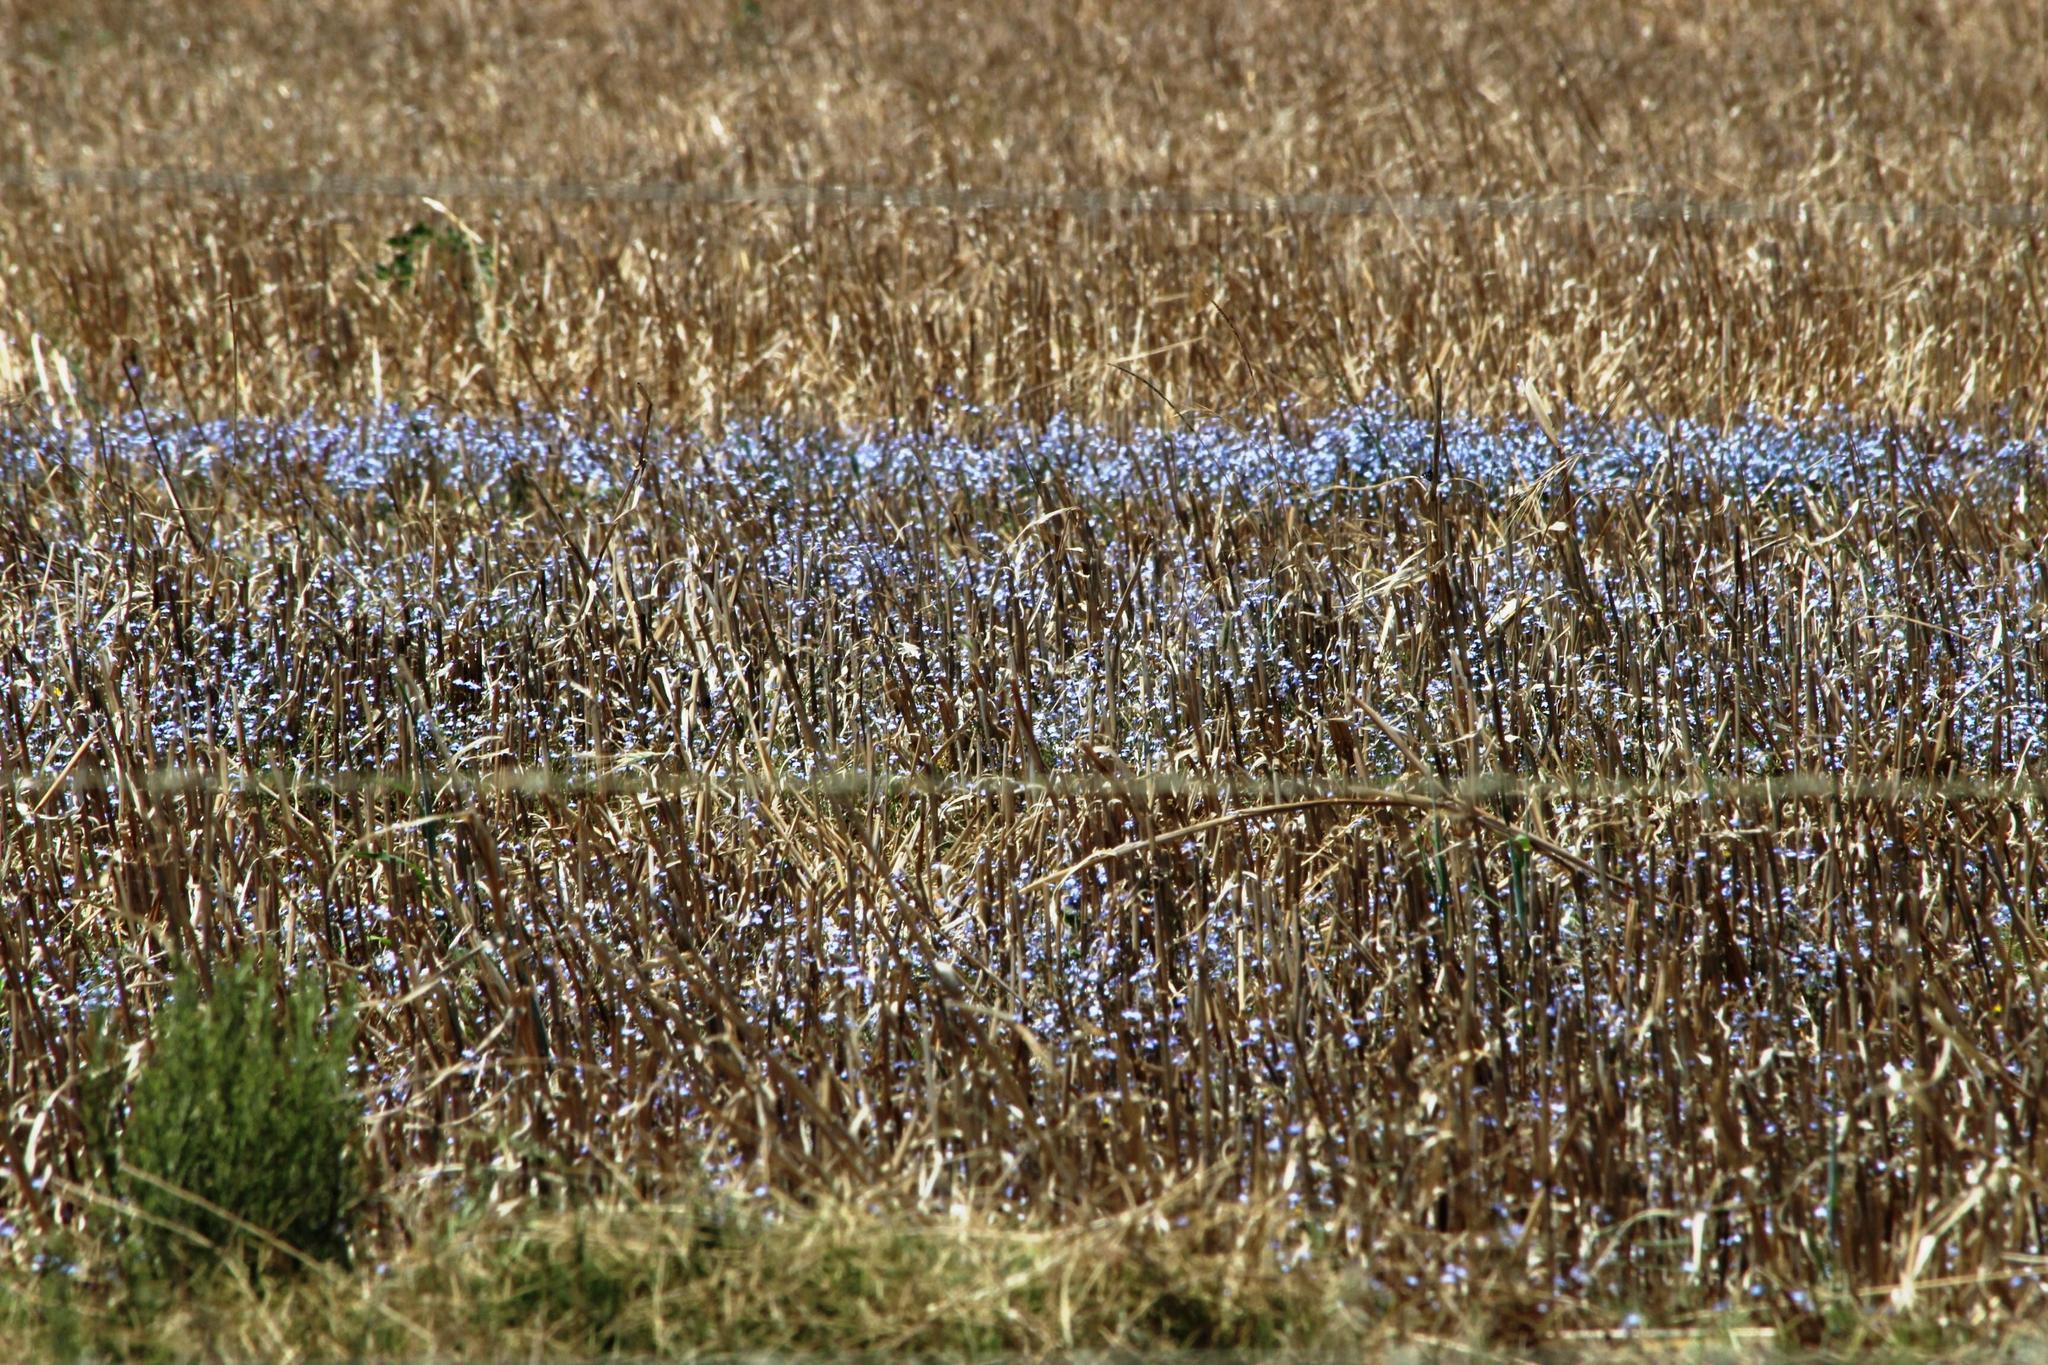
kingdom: Plantae
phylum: Tracheophyta
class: Magnoliopsida
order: Asterales
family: Campanulaceae
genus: Lobelia
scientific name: Lobelia erinus
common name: Edging lobelia
